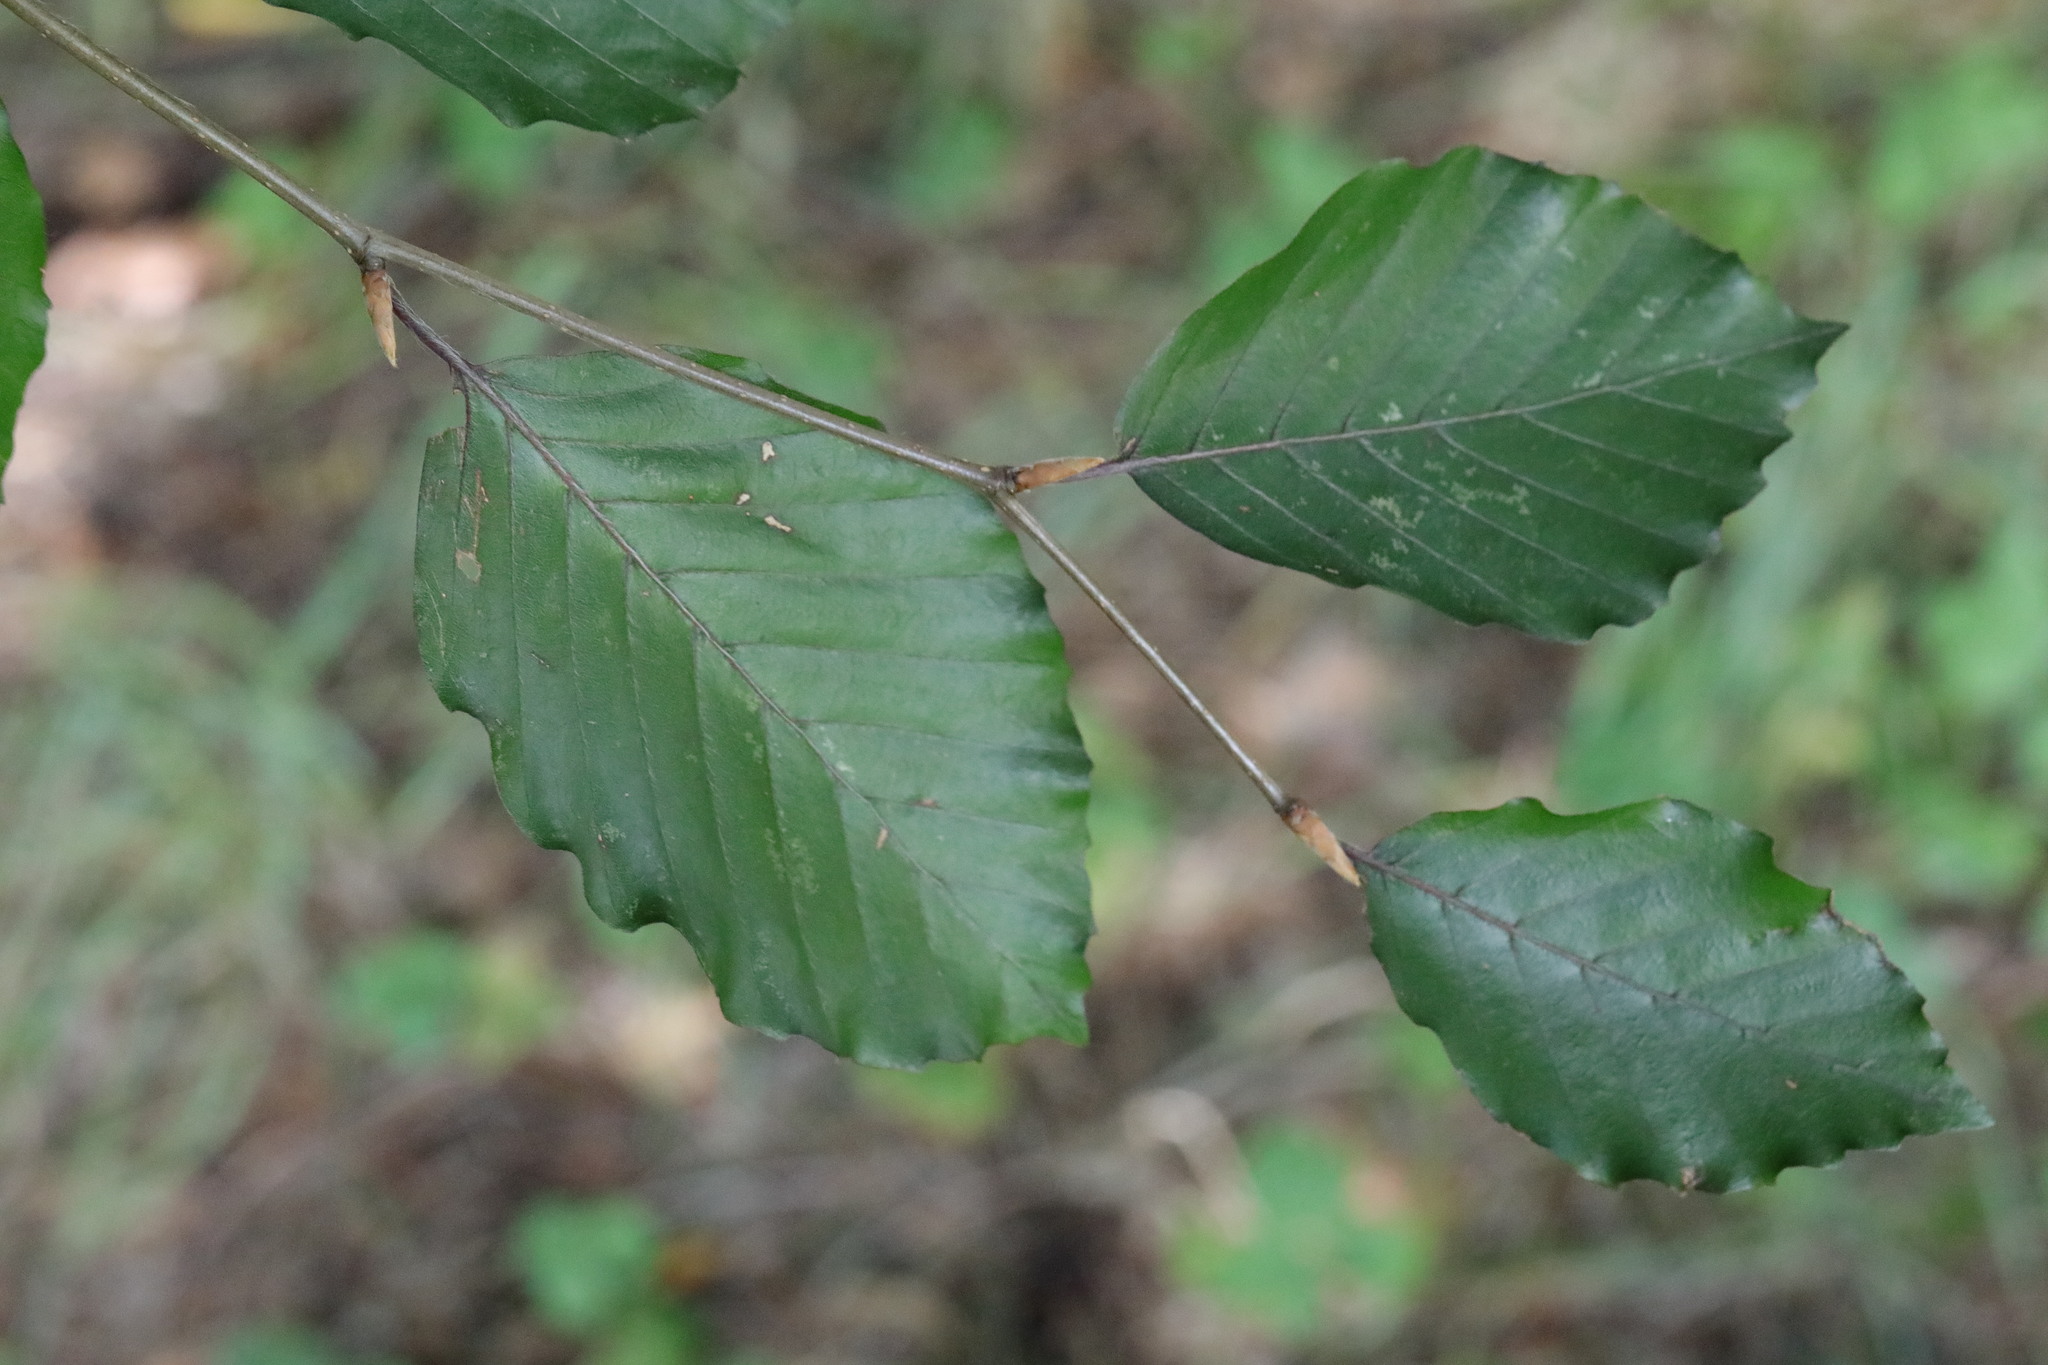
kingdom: Plantae
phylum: Tracheophyta
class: Magnoliopsida
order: Fagales
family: Fagaceae
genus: Fagus
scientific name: Fagus sylvatica
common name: Beech
